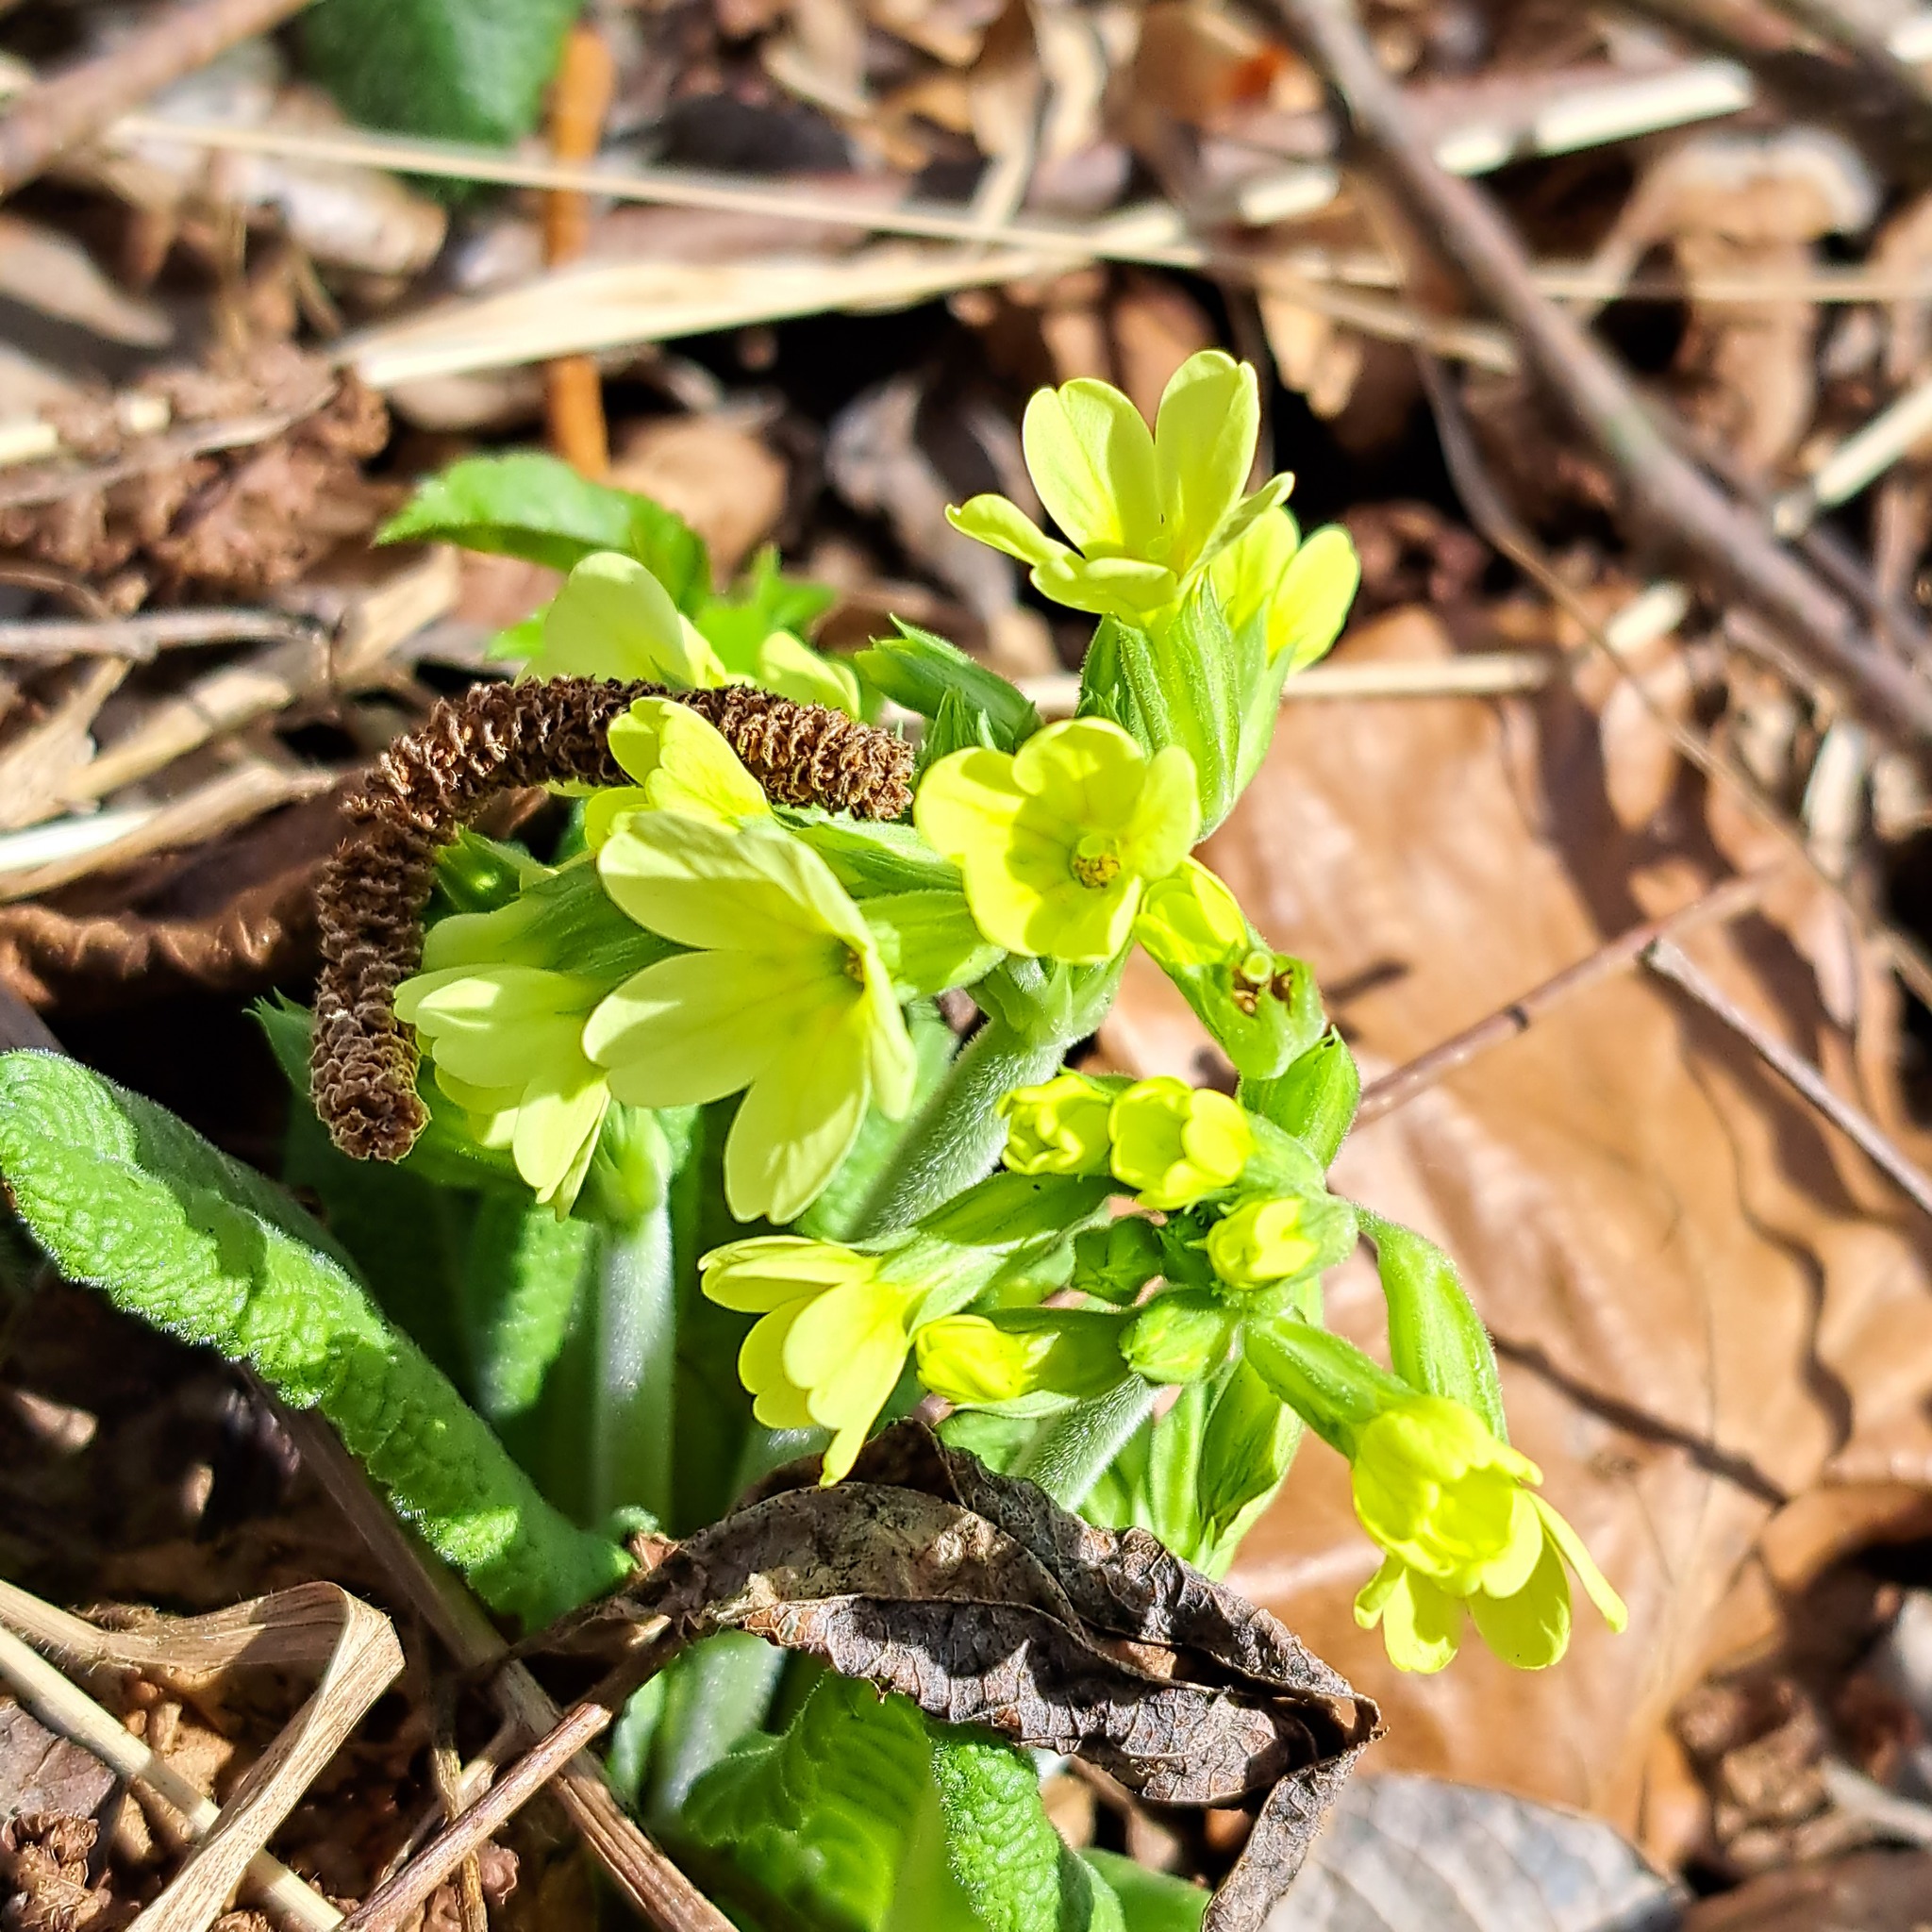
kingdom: Plantae
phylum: Tracheophyta
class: Magnoliopsida
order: Ericales
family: Primulaceae
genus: Primula
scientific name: Primula elatior
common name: Oxlip
